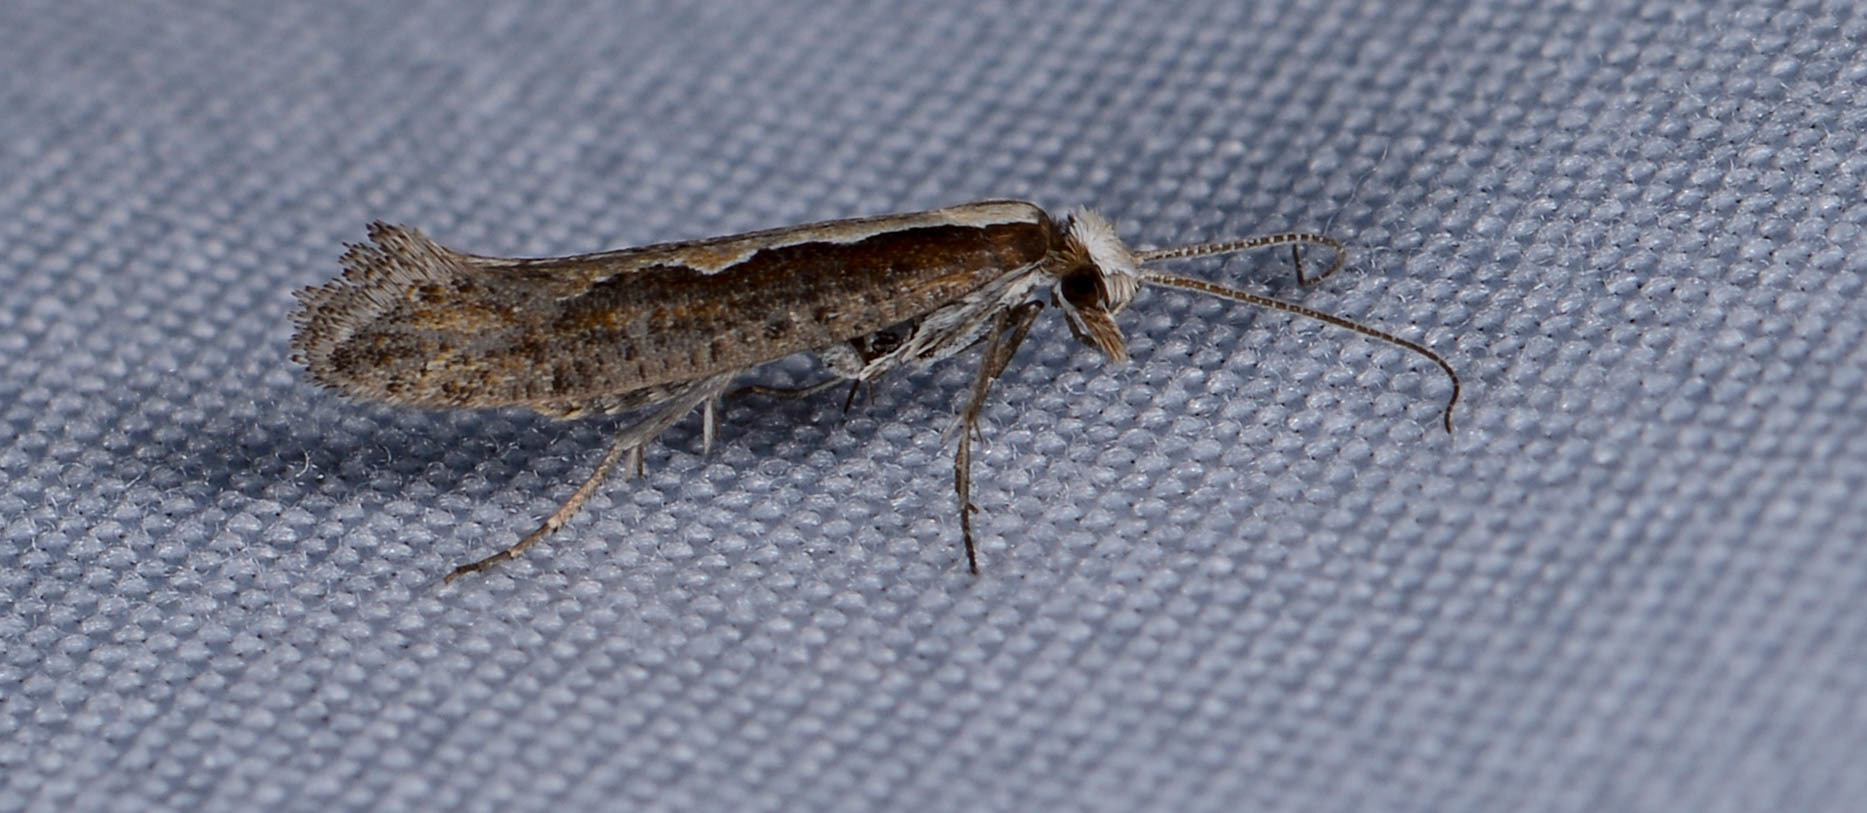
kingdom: Animalia
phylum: Arthropoda
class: Insecta
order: Lepidoptera
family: Plutellidae
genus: Plutella
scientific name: Plutella xylostella
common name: Diamond-back moth
